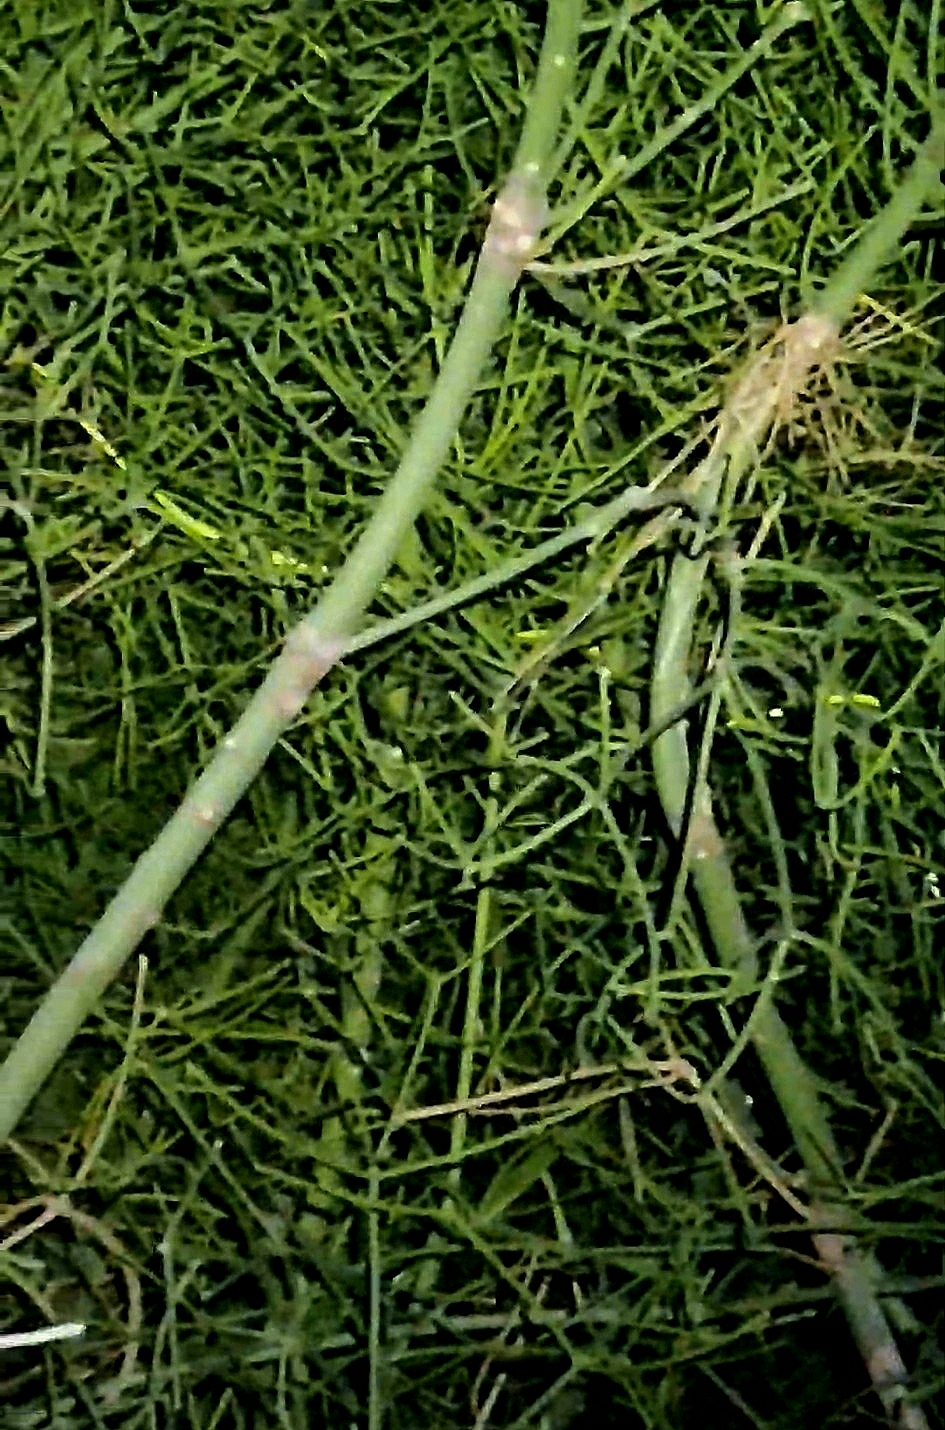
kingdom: Animalia
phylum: Chordata
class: Squamata
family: Colubridae
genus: Ahaetulla
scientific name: Ahaetulla oxyrhyncha
